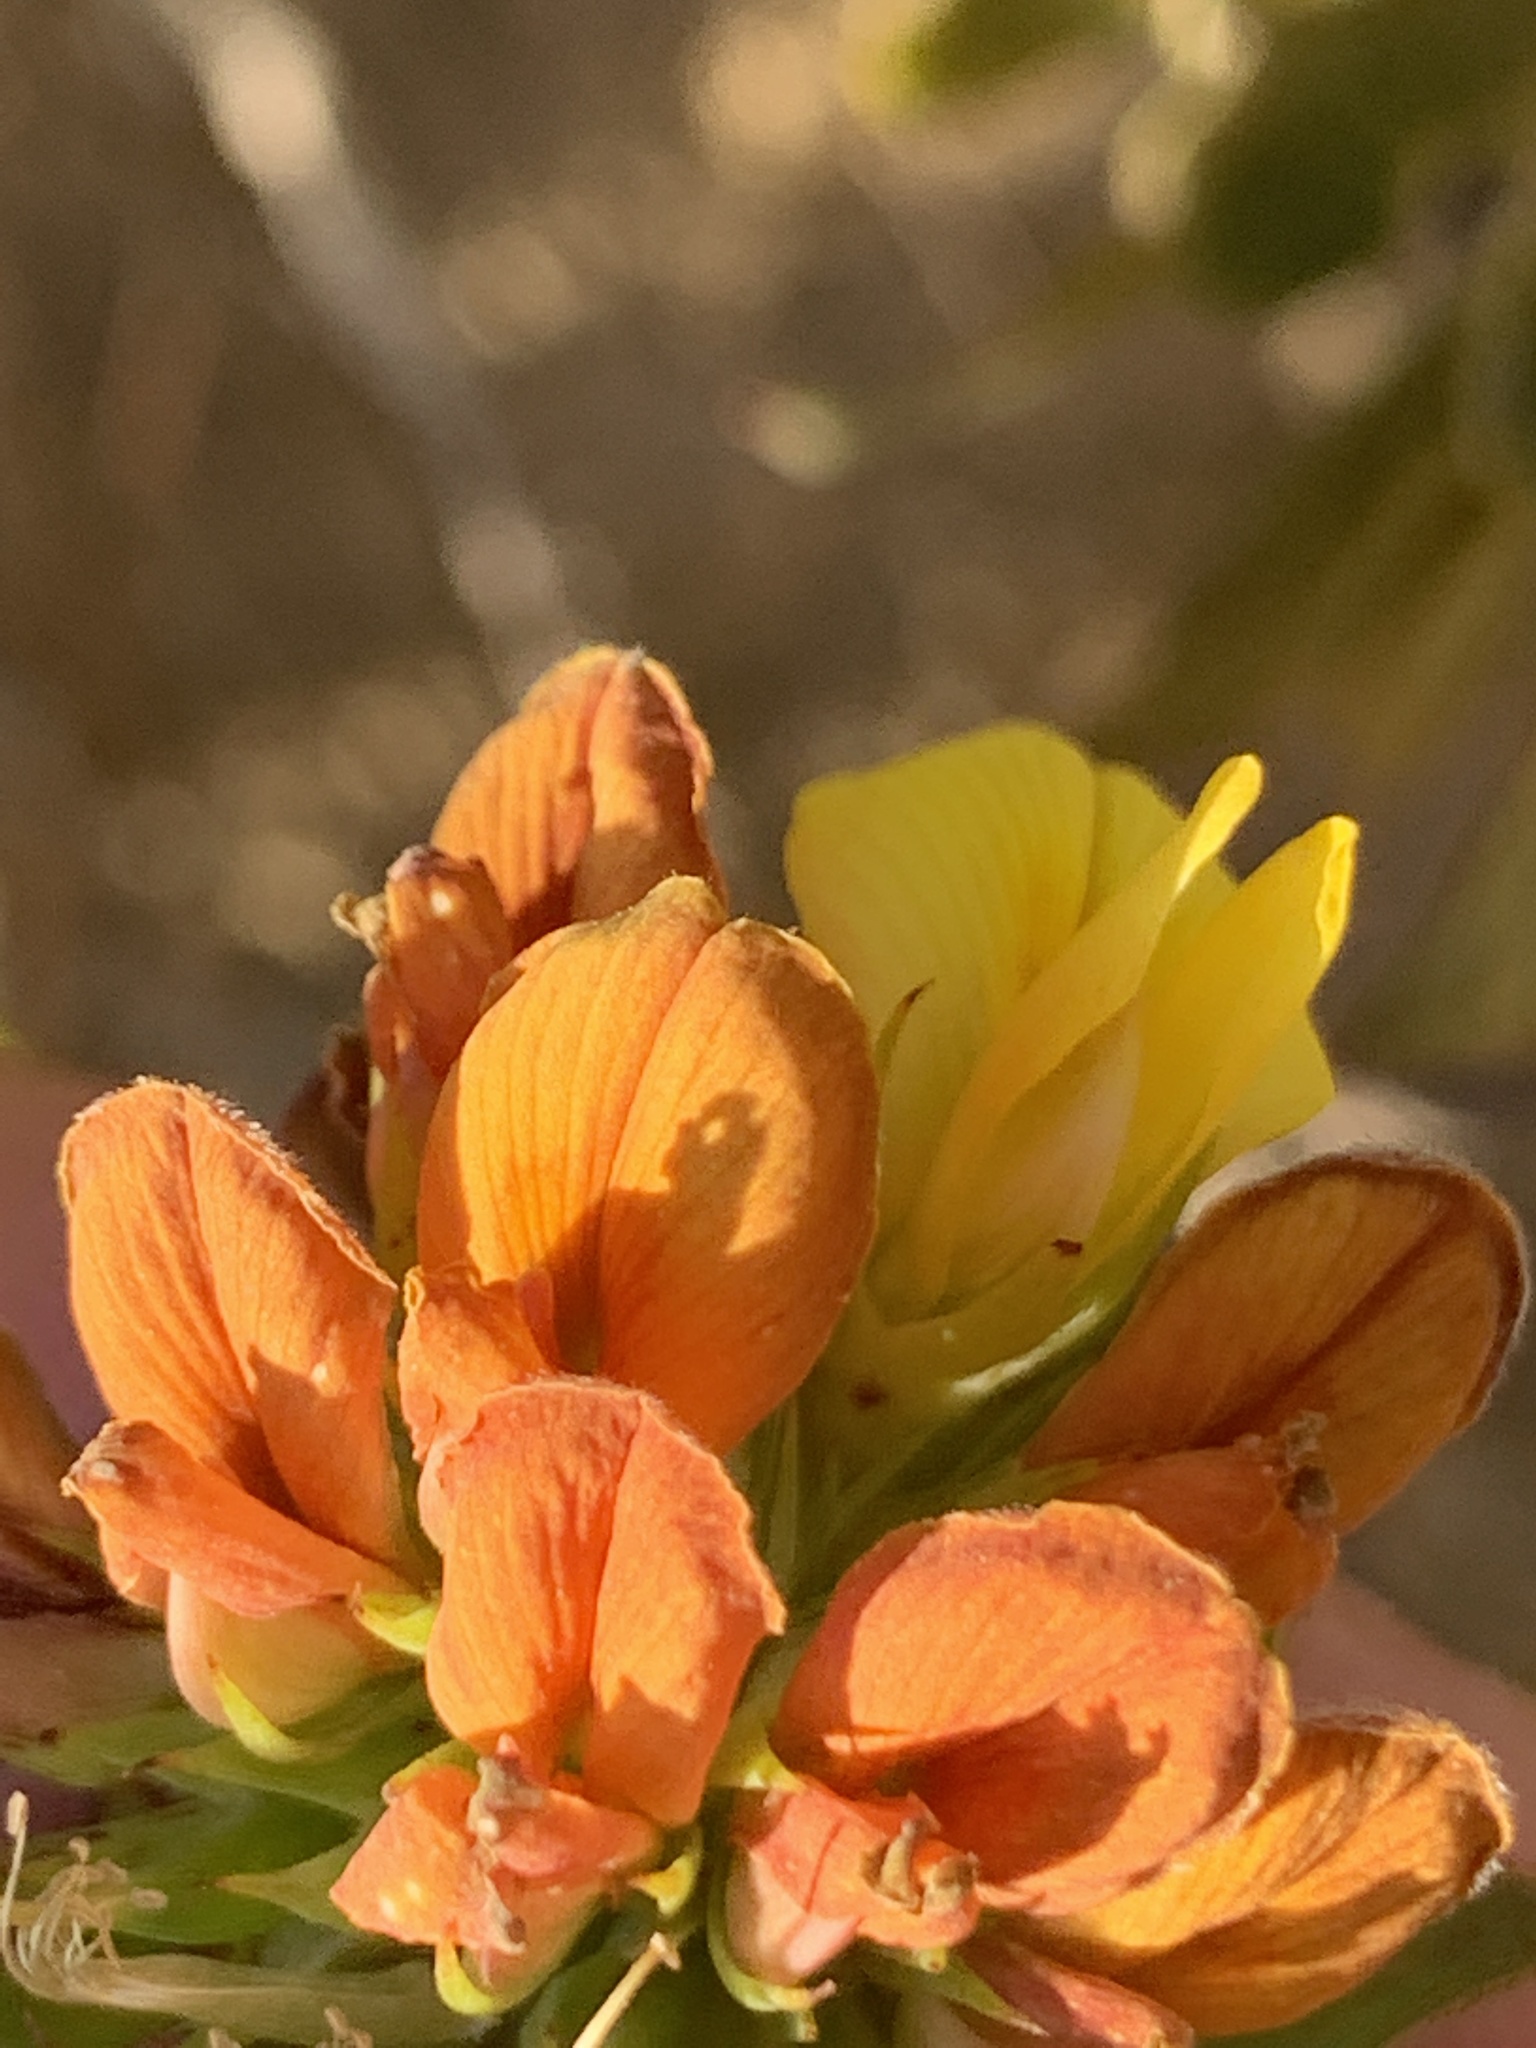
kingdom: Plantae
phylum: Tracheophyta
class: Magnoliopsida
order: Fabales
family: Fabaceae
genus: Aspalathus
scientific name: Aspalathus crenata
